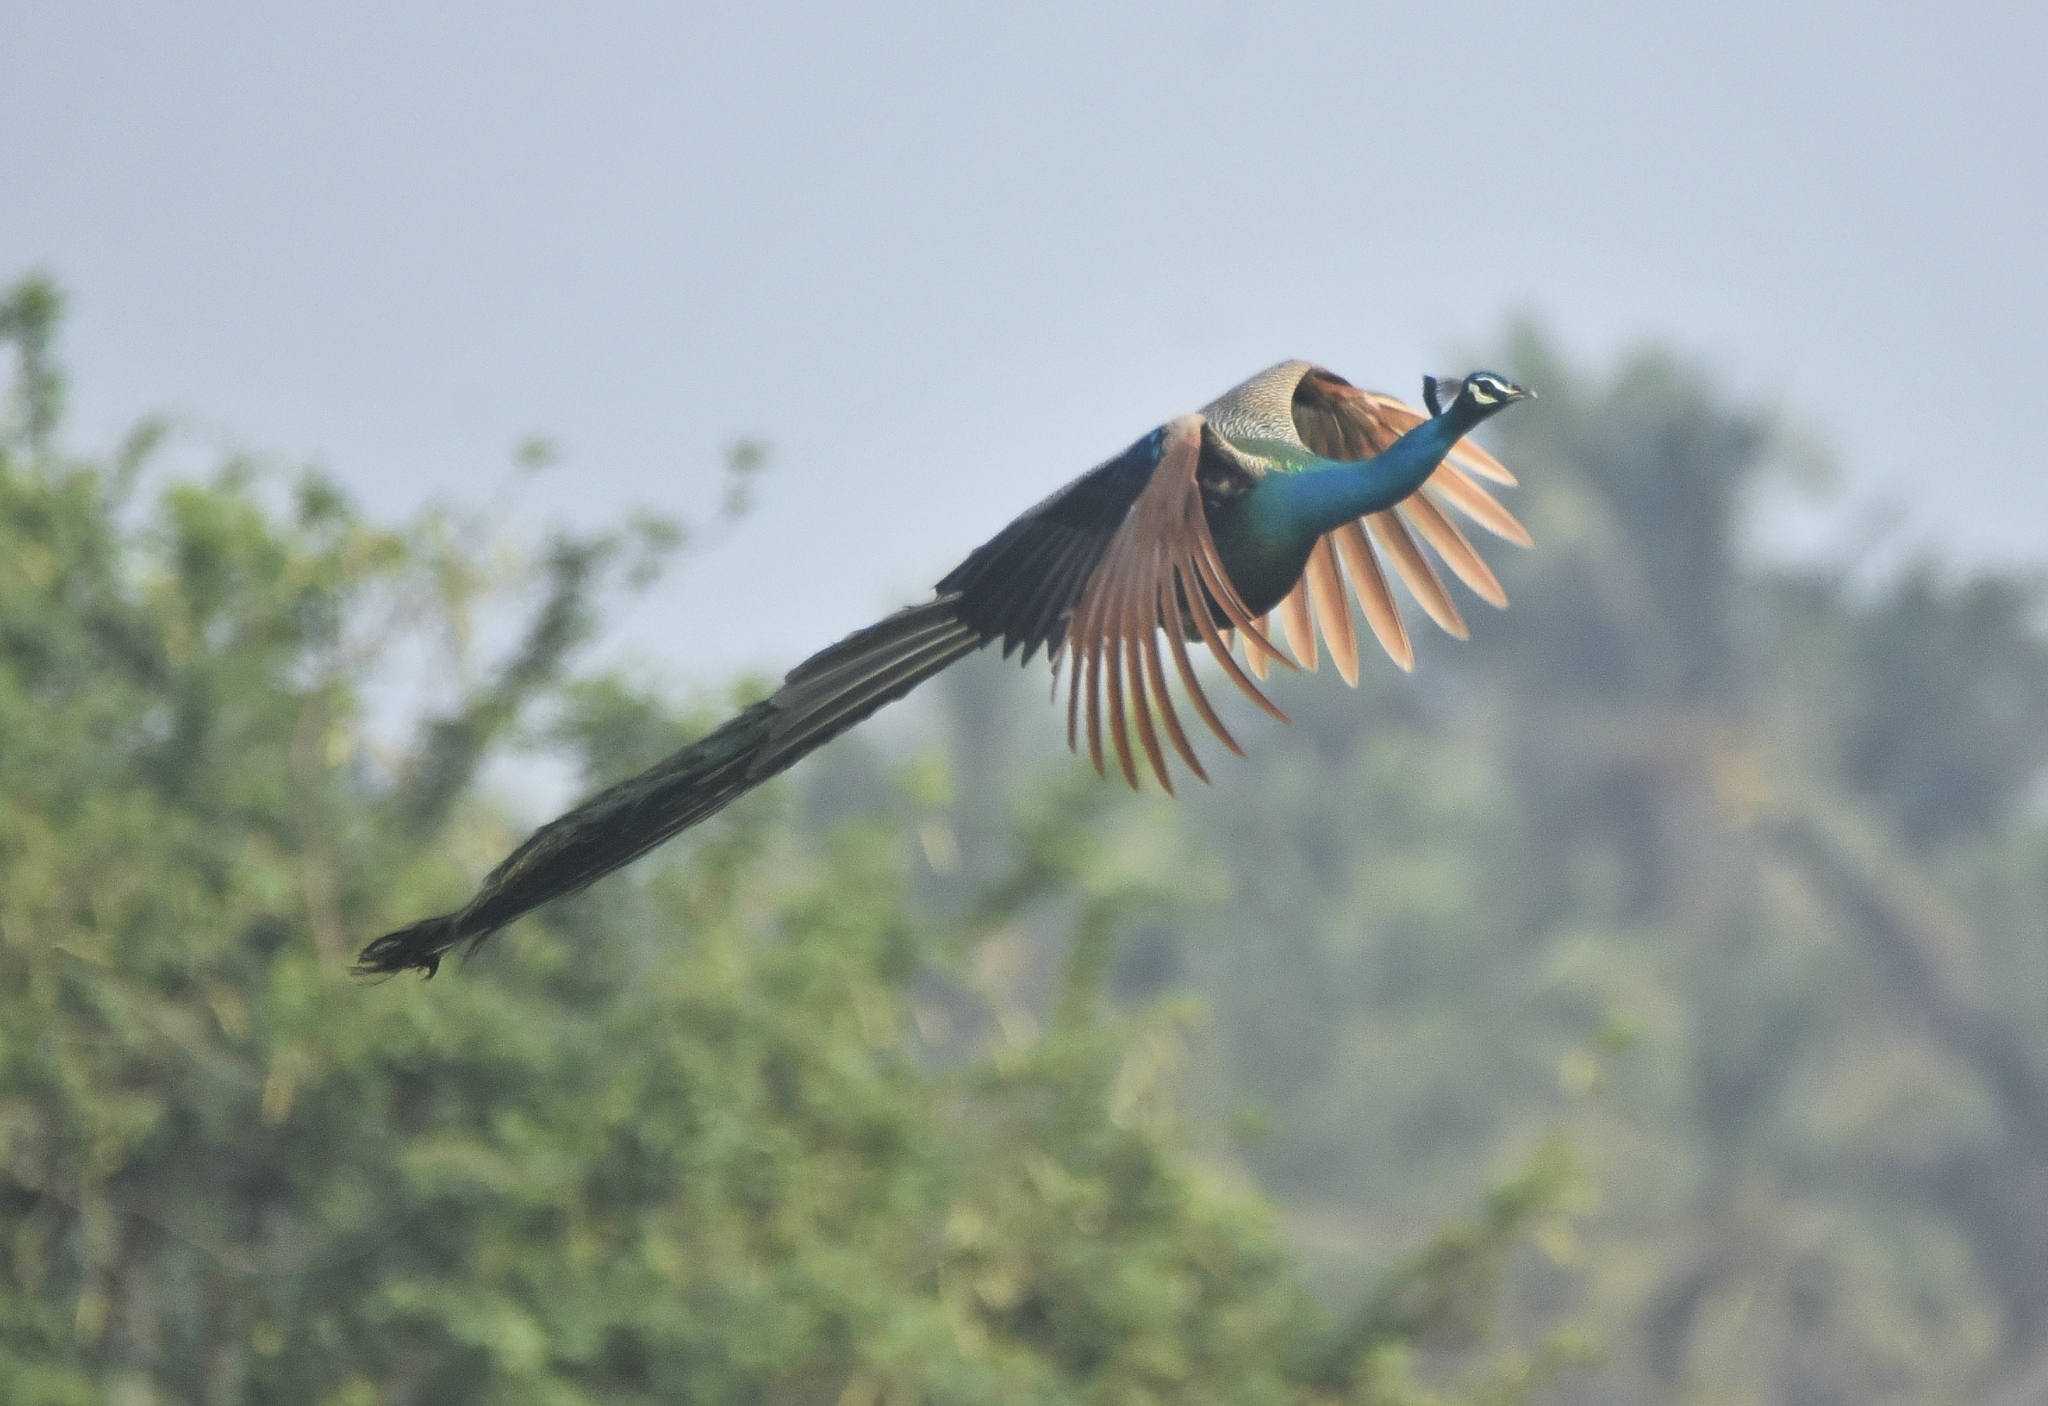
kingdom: Animalia
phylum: Chordata
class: Aves
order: Galliformes
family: Phasianidae
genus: Pavo
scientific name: Pavo cristatus
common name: Indian peafowl
